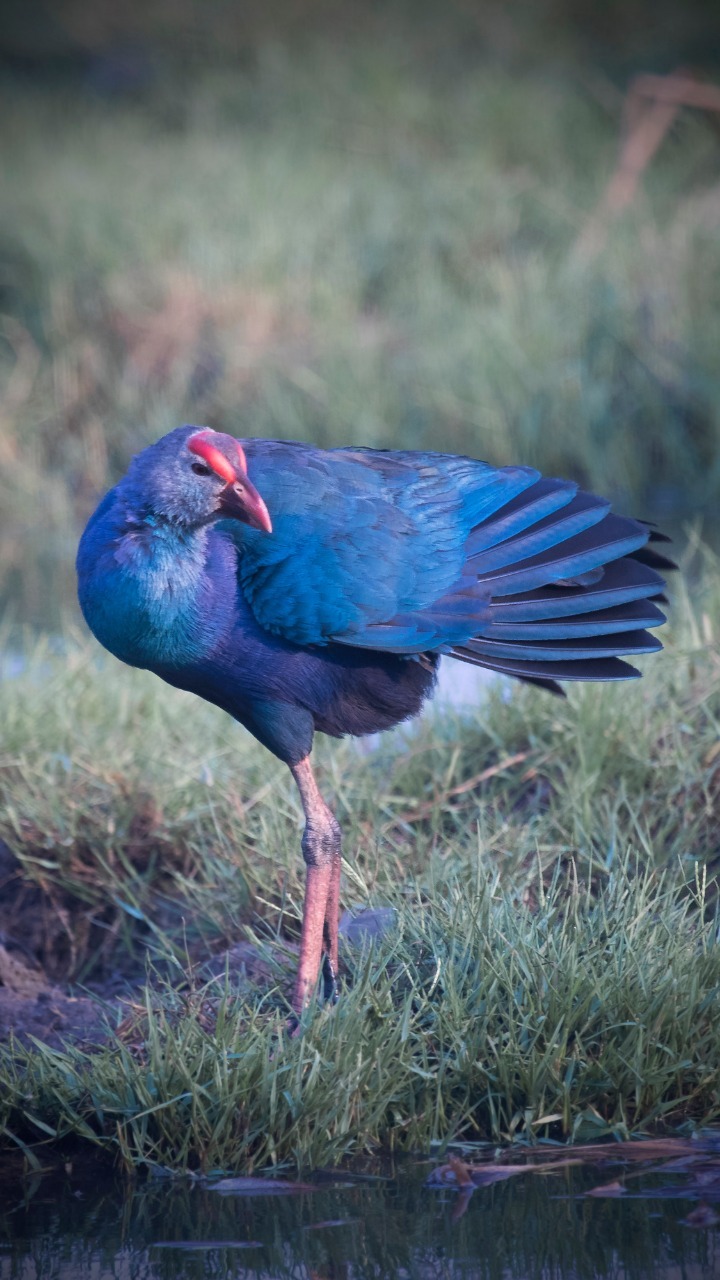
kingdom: Animalia
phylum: Chordata
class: Aves
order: Gruiformes
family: Rallidae
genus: Porphyrio
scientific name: Porphyrio porphyrio
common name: Purple swamphen
